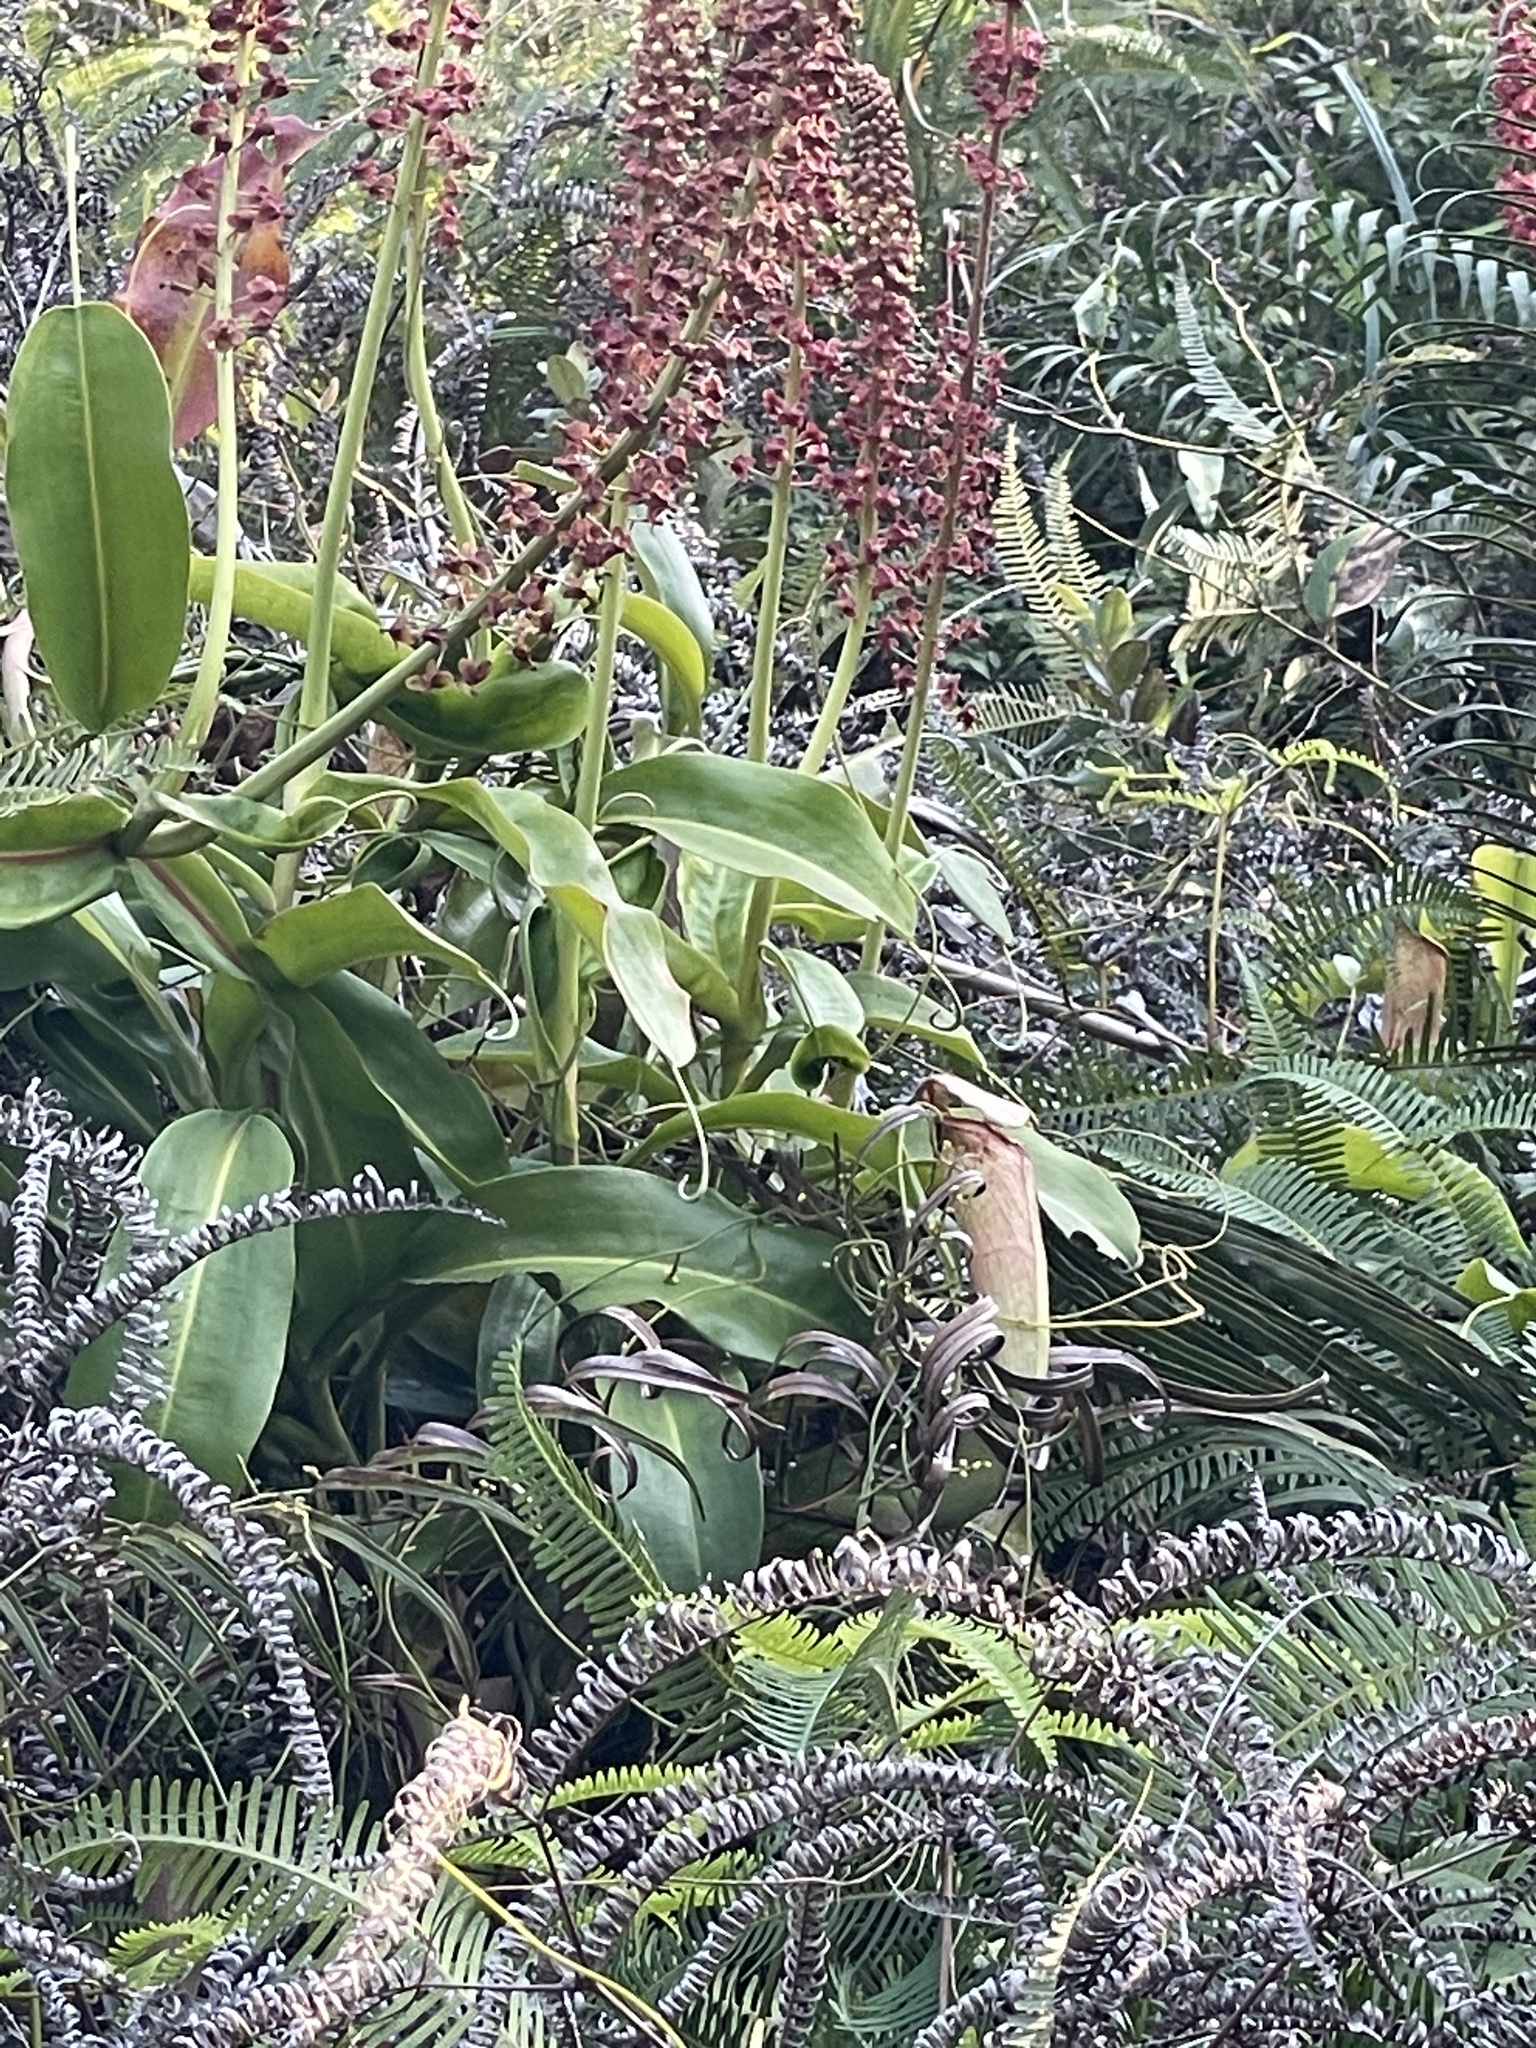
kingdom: Plantae
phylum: Tracheophyta
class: Magnoliopsida
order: Caryophyllales
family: Nepenthaceae
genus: Nepenthes
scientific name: Nepenthes mirabilis
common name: Tropical pitcherplant
